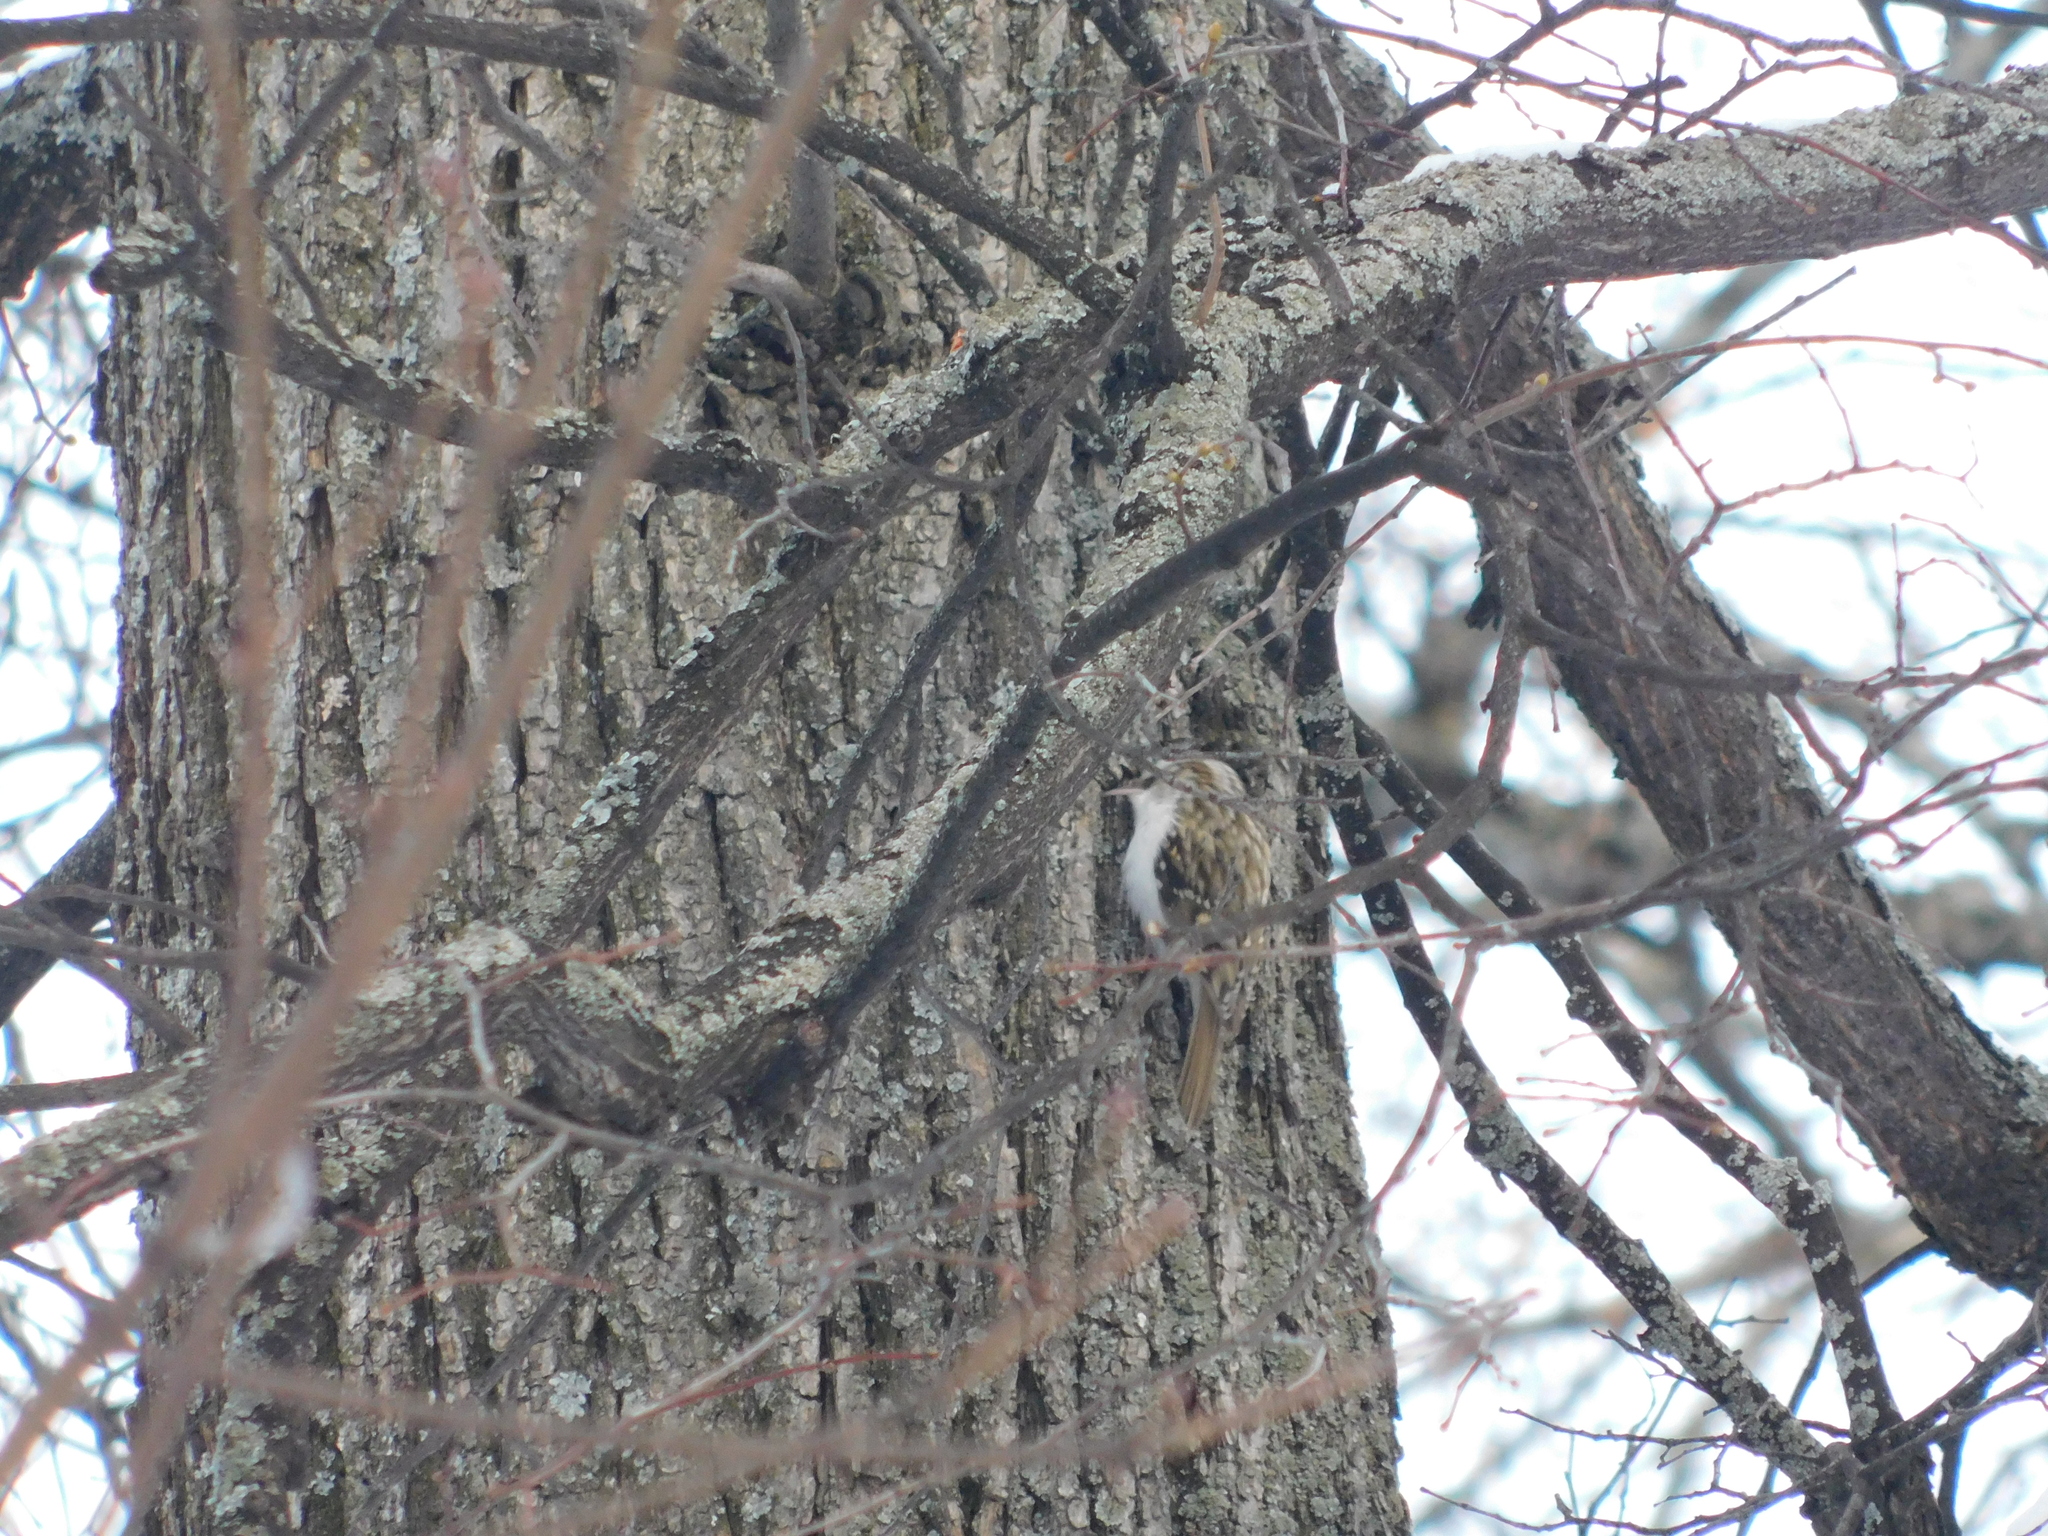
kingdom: Animalia
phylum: Chordata
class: Aves
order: Passeriformes
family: Certhiidae
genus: Certhia
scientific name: Certhia familiaris
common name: Eurasian treecreeper
